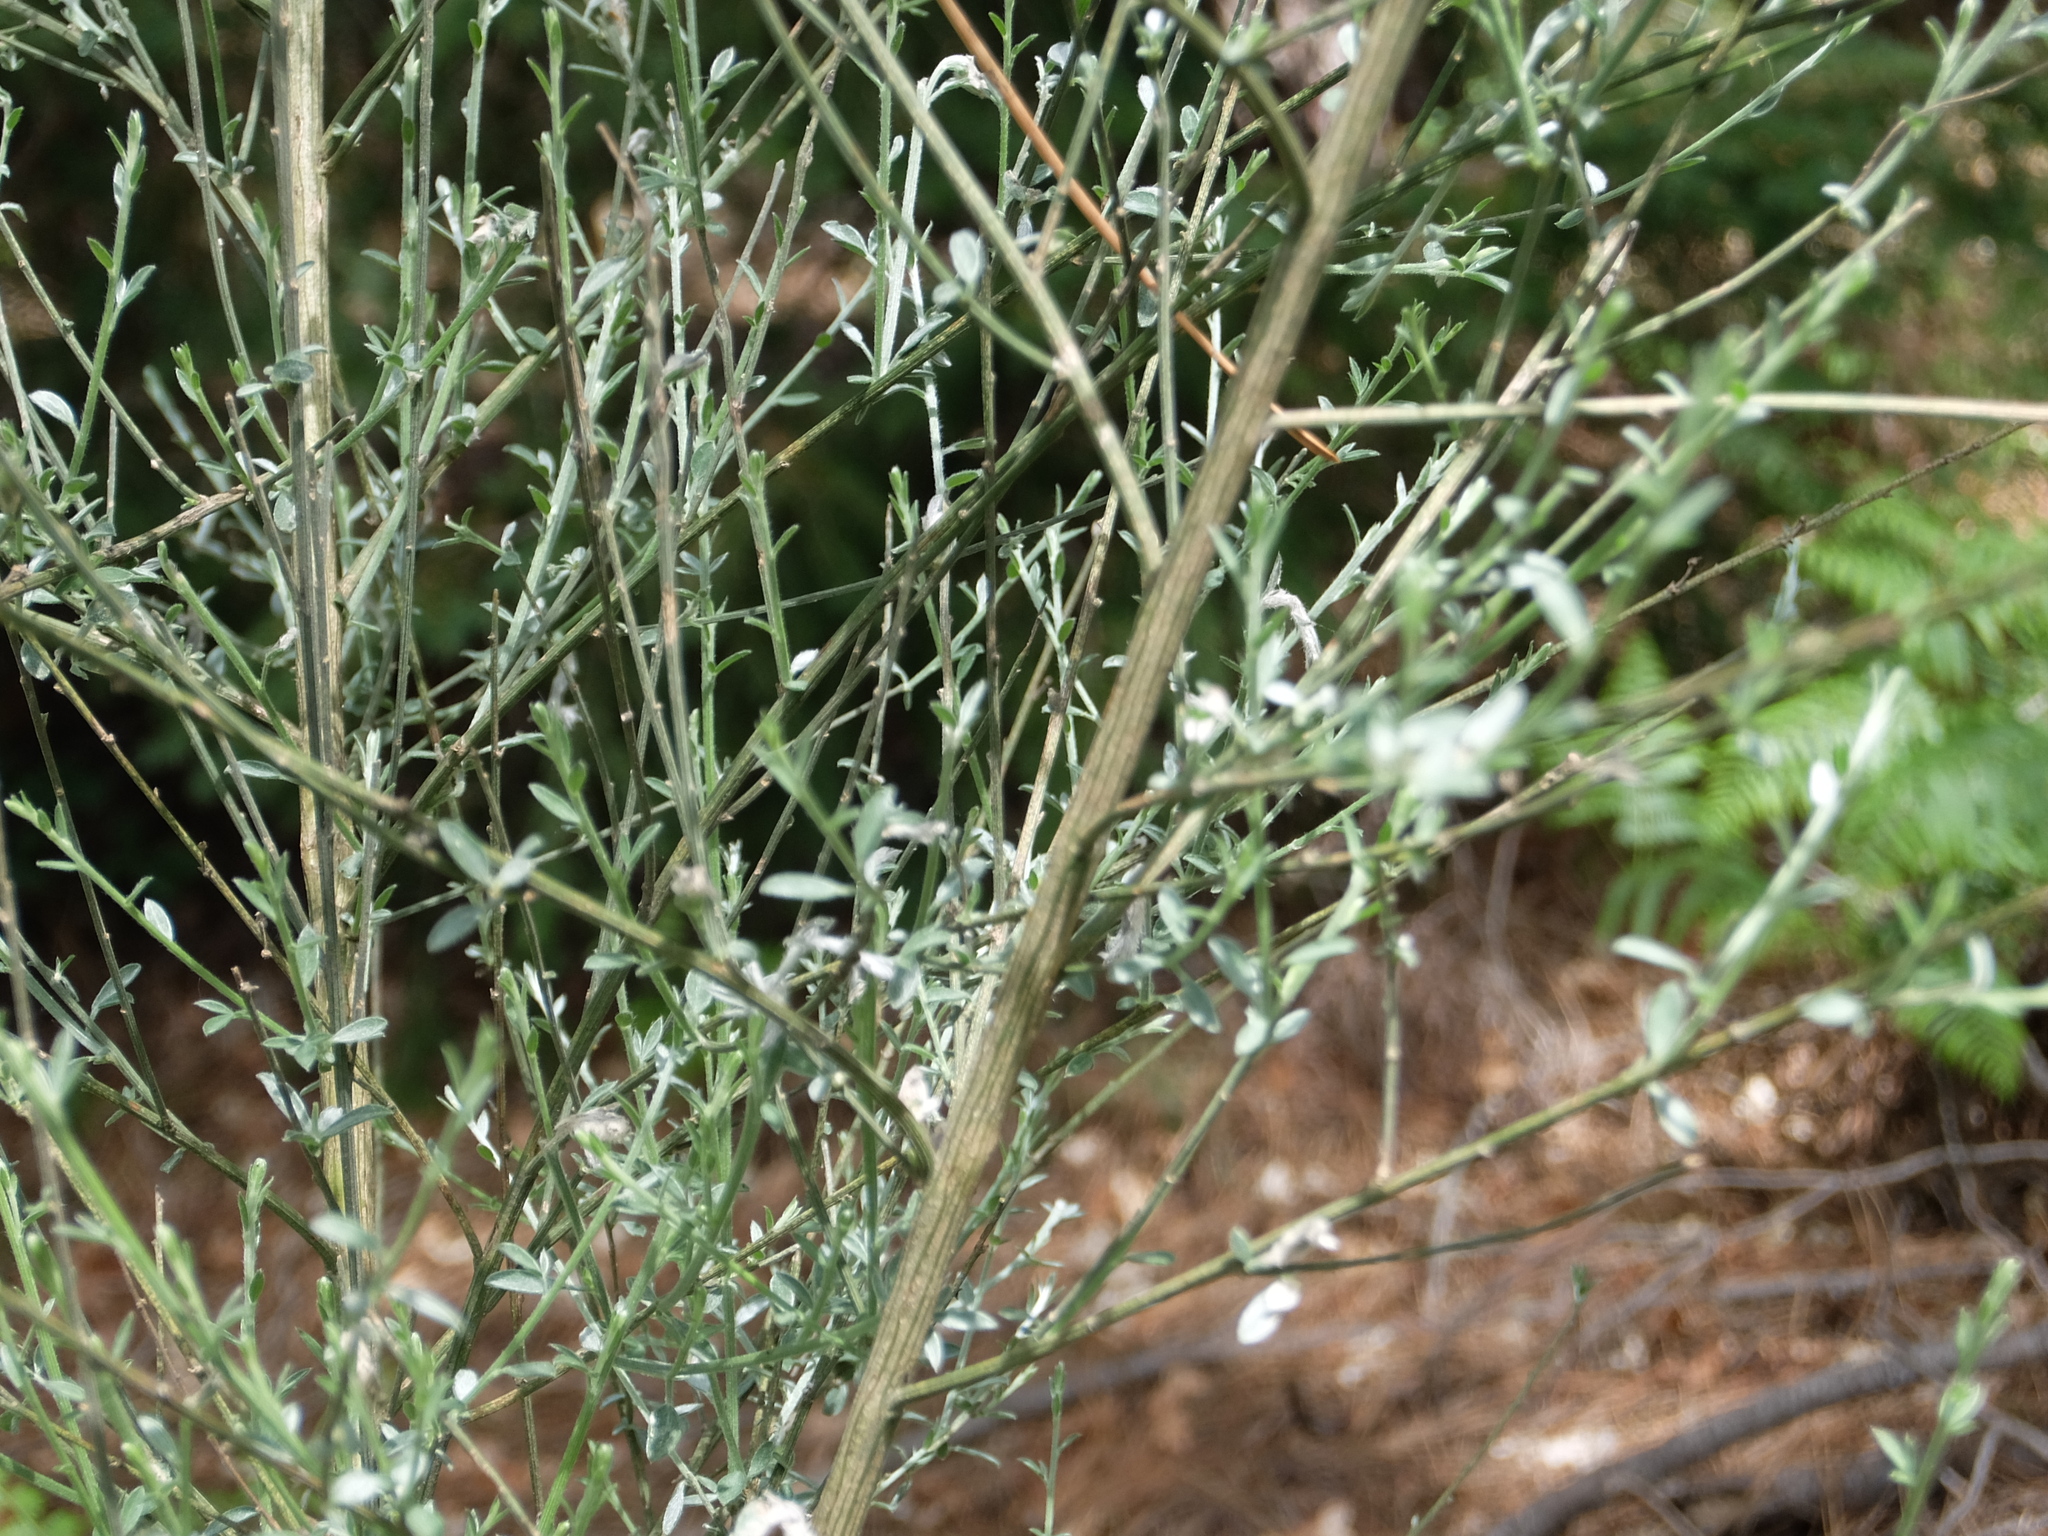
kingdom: Plantae
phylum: Tracheophyta
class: Magnoliopsida
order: Fabales
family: Fabaceae
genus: Genista
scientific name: Genista florida
